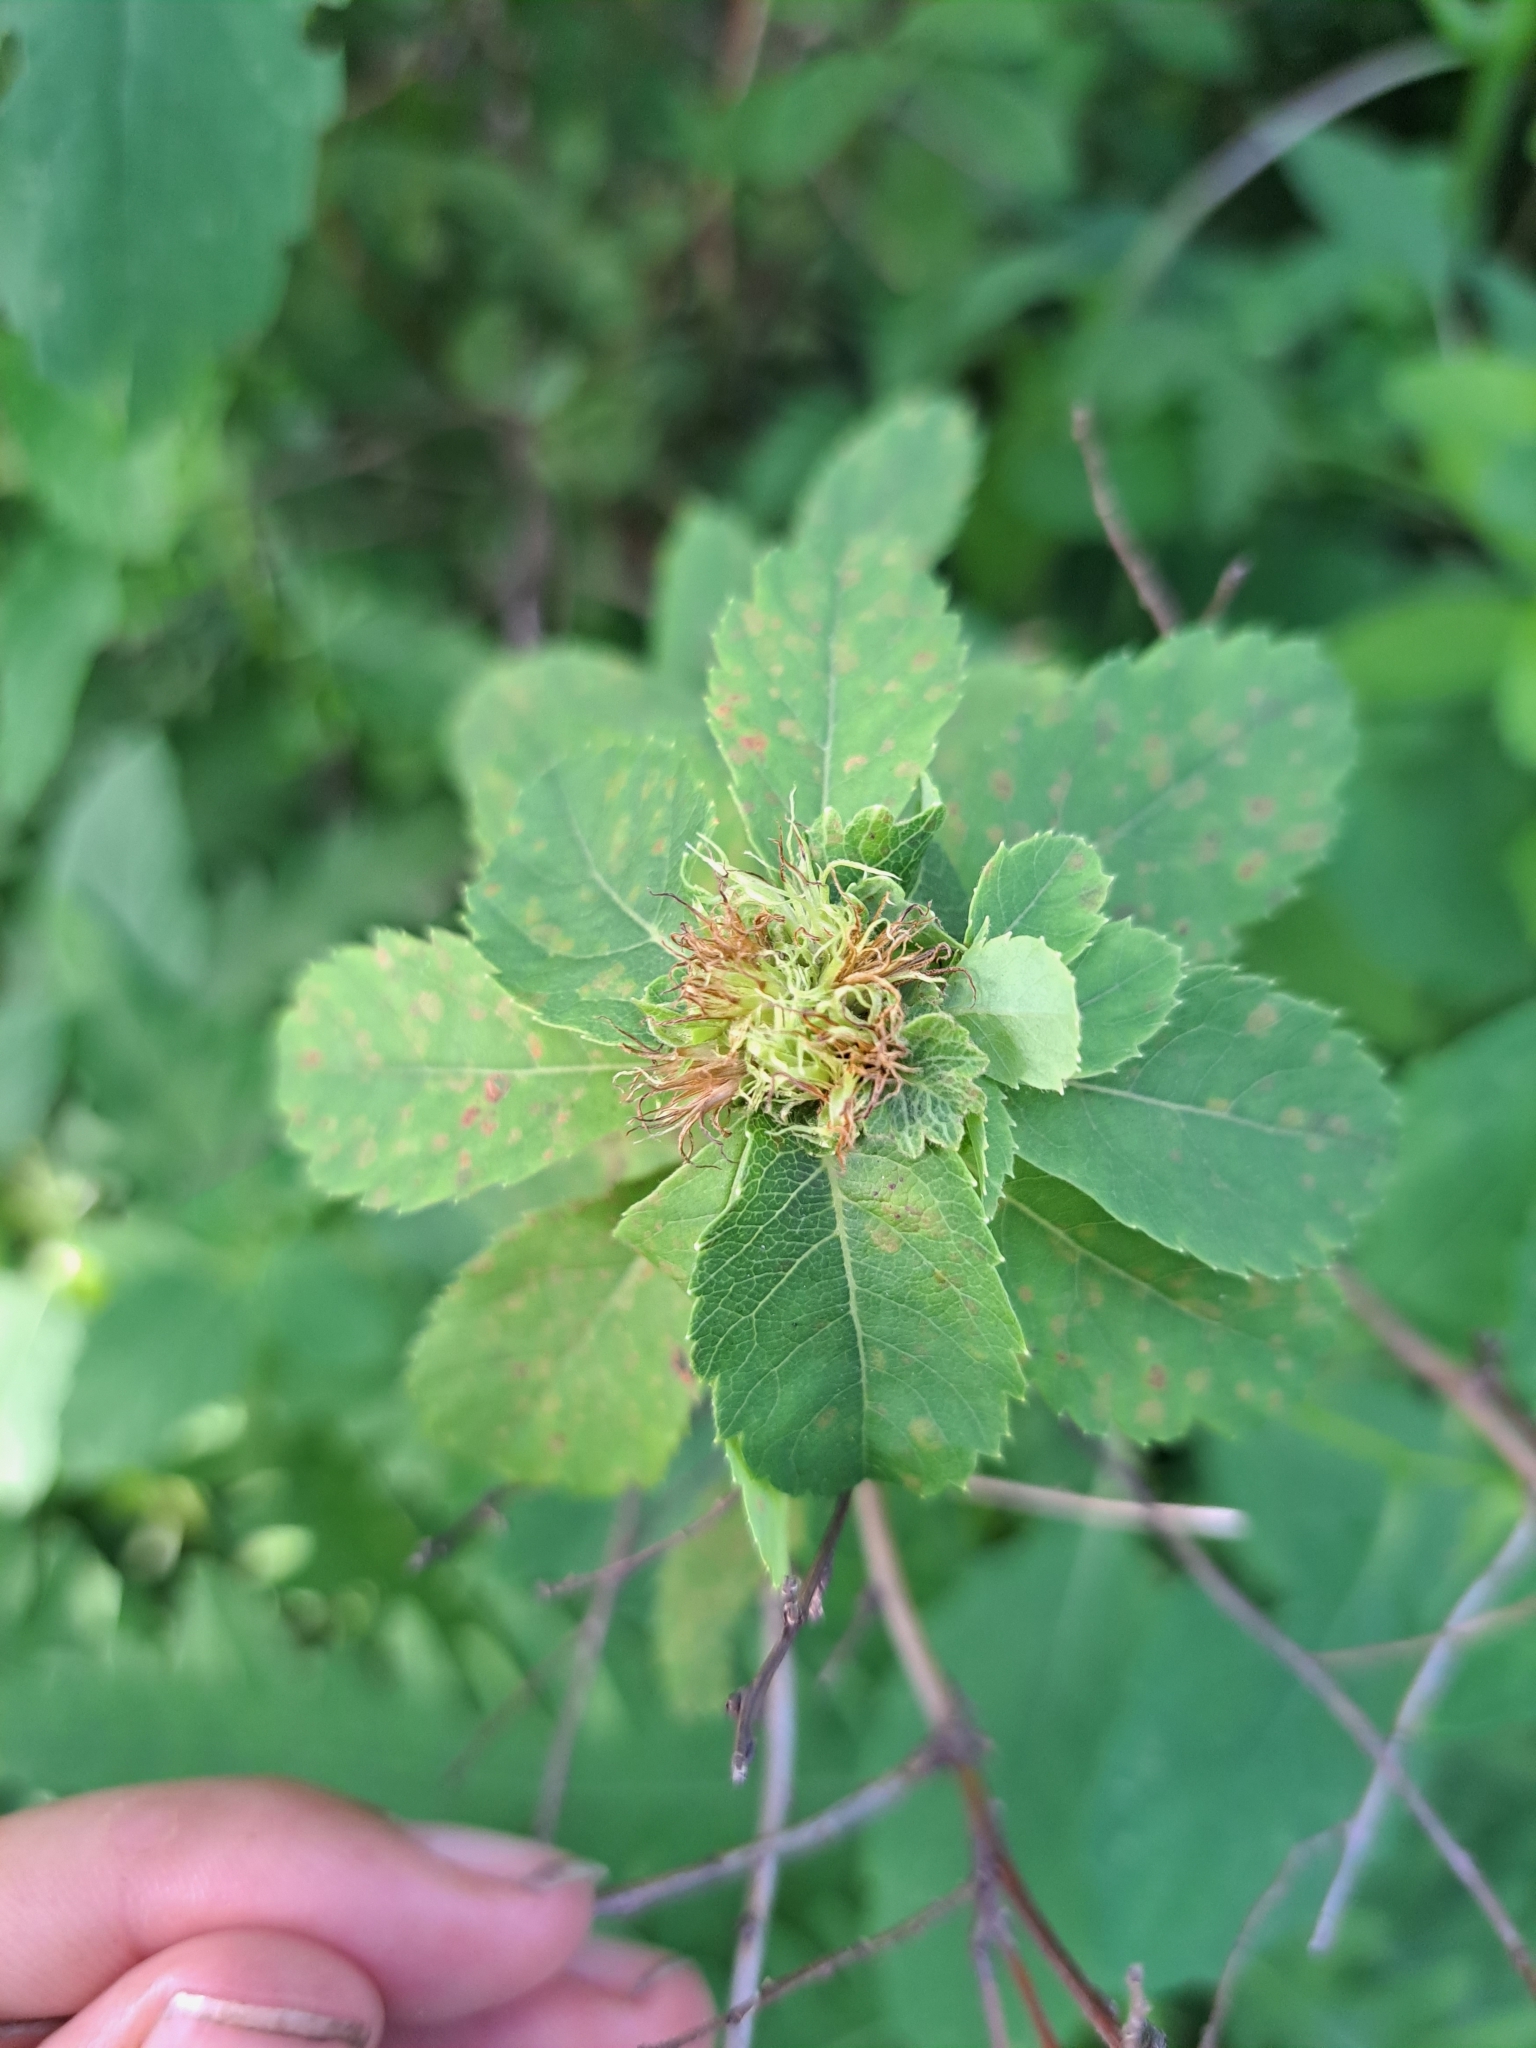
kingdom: Animalia
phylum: Arthropoda
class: Insecta
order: Diptera
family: Cecidomyiidae
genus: Clinodiplosis
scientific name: Clinodiplosis lappa
